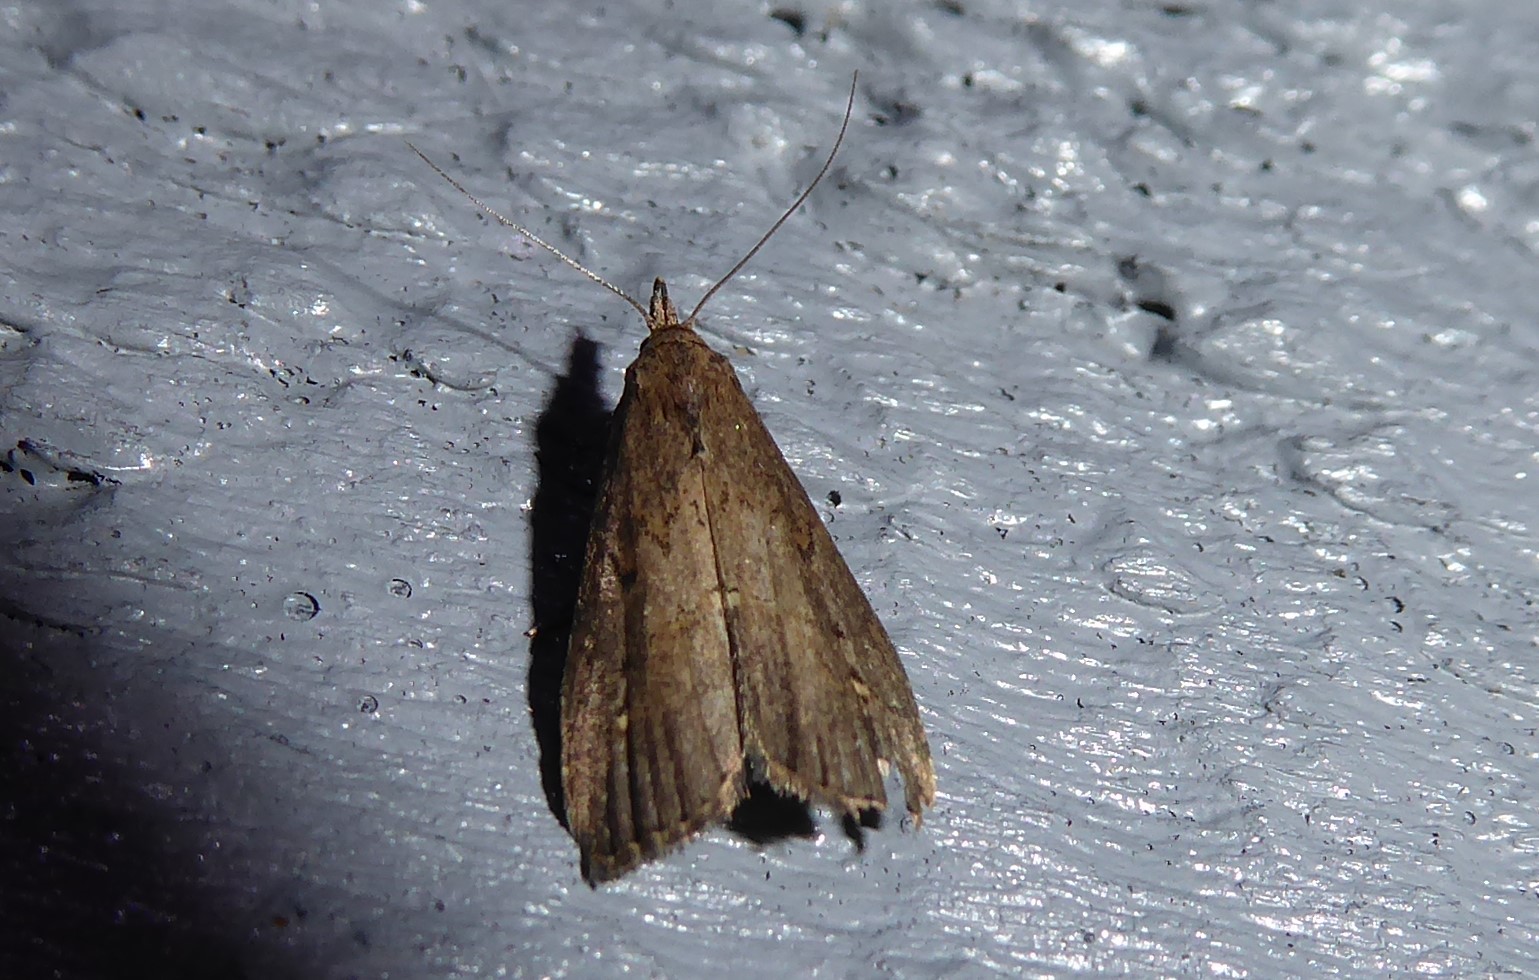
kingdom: Animalia
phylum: Arthropoda
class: Insecta
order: Lepidoptera
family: Erebidae
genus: Schrankia
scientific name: Schrankia costaestrigalis
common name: Pinion-streaked snout
